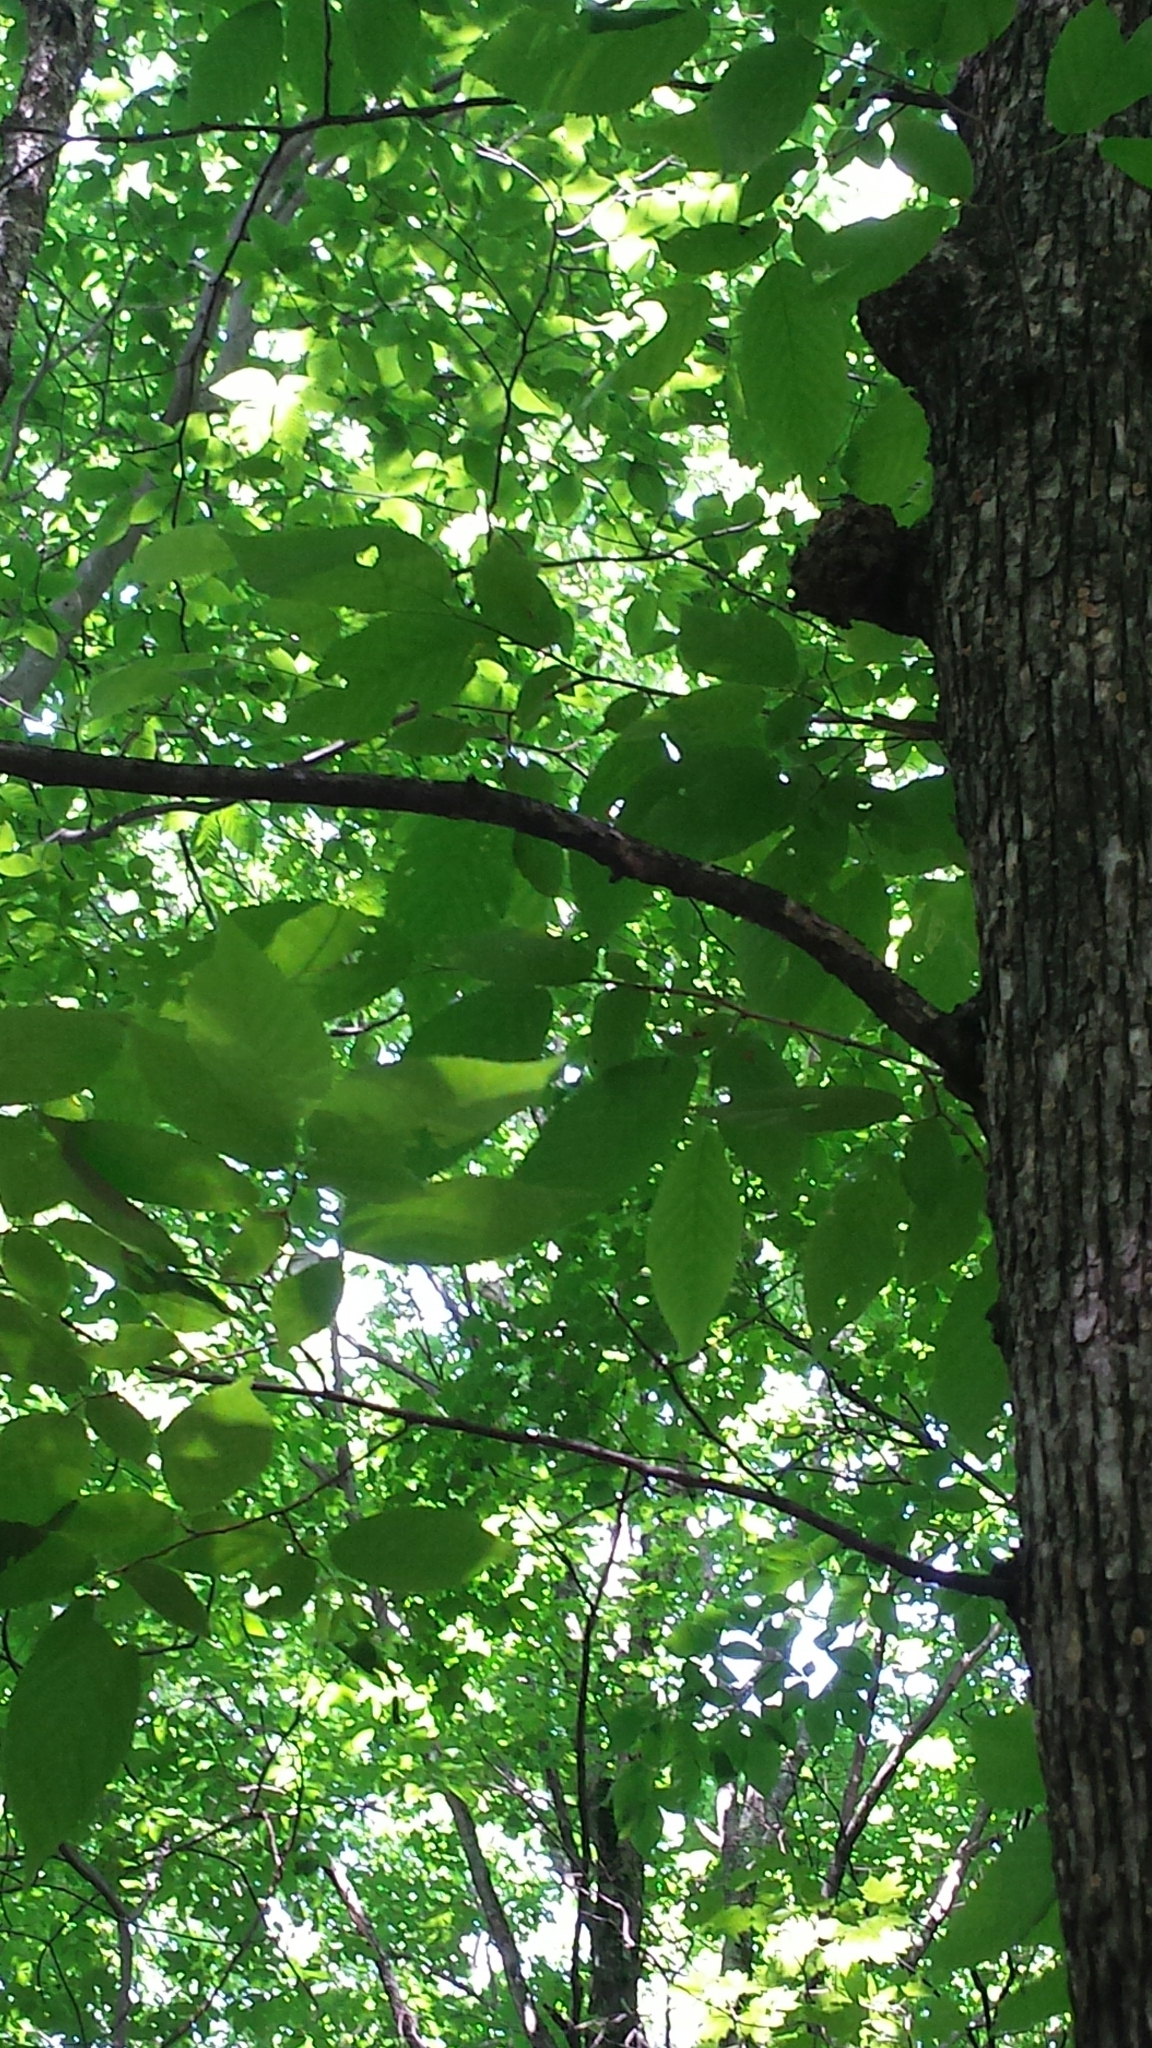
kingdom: Plantae
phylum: Tracheophyta
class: Magnoliopsida
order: Fagales
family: Betulaceae
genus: Ostrya
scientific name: Ostrya virginiana
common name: Ironwood
